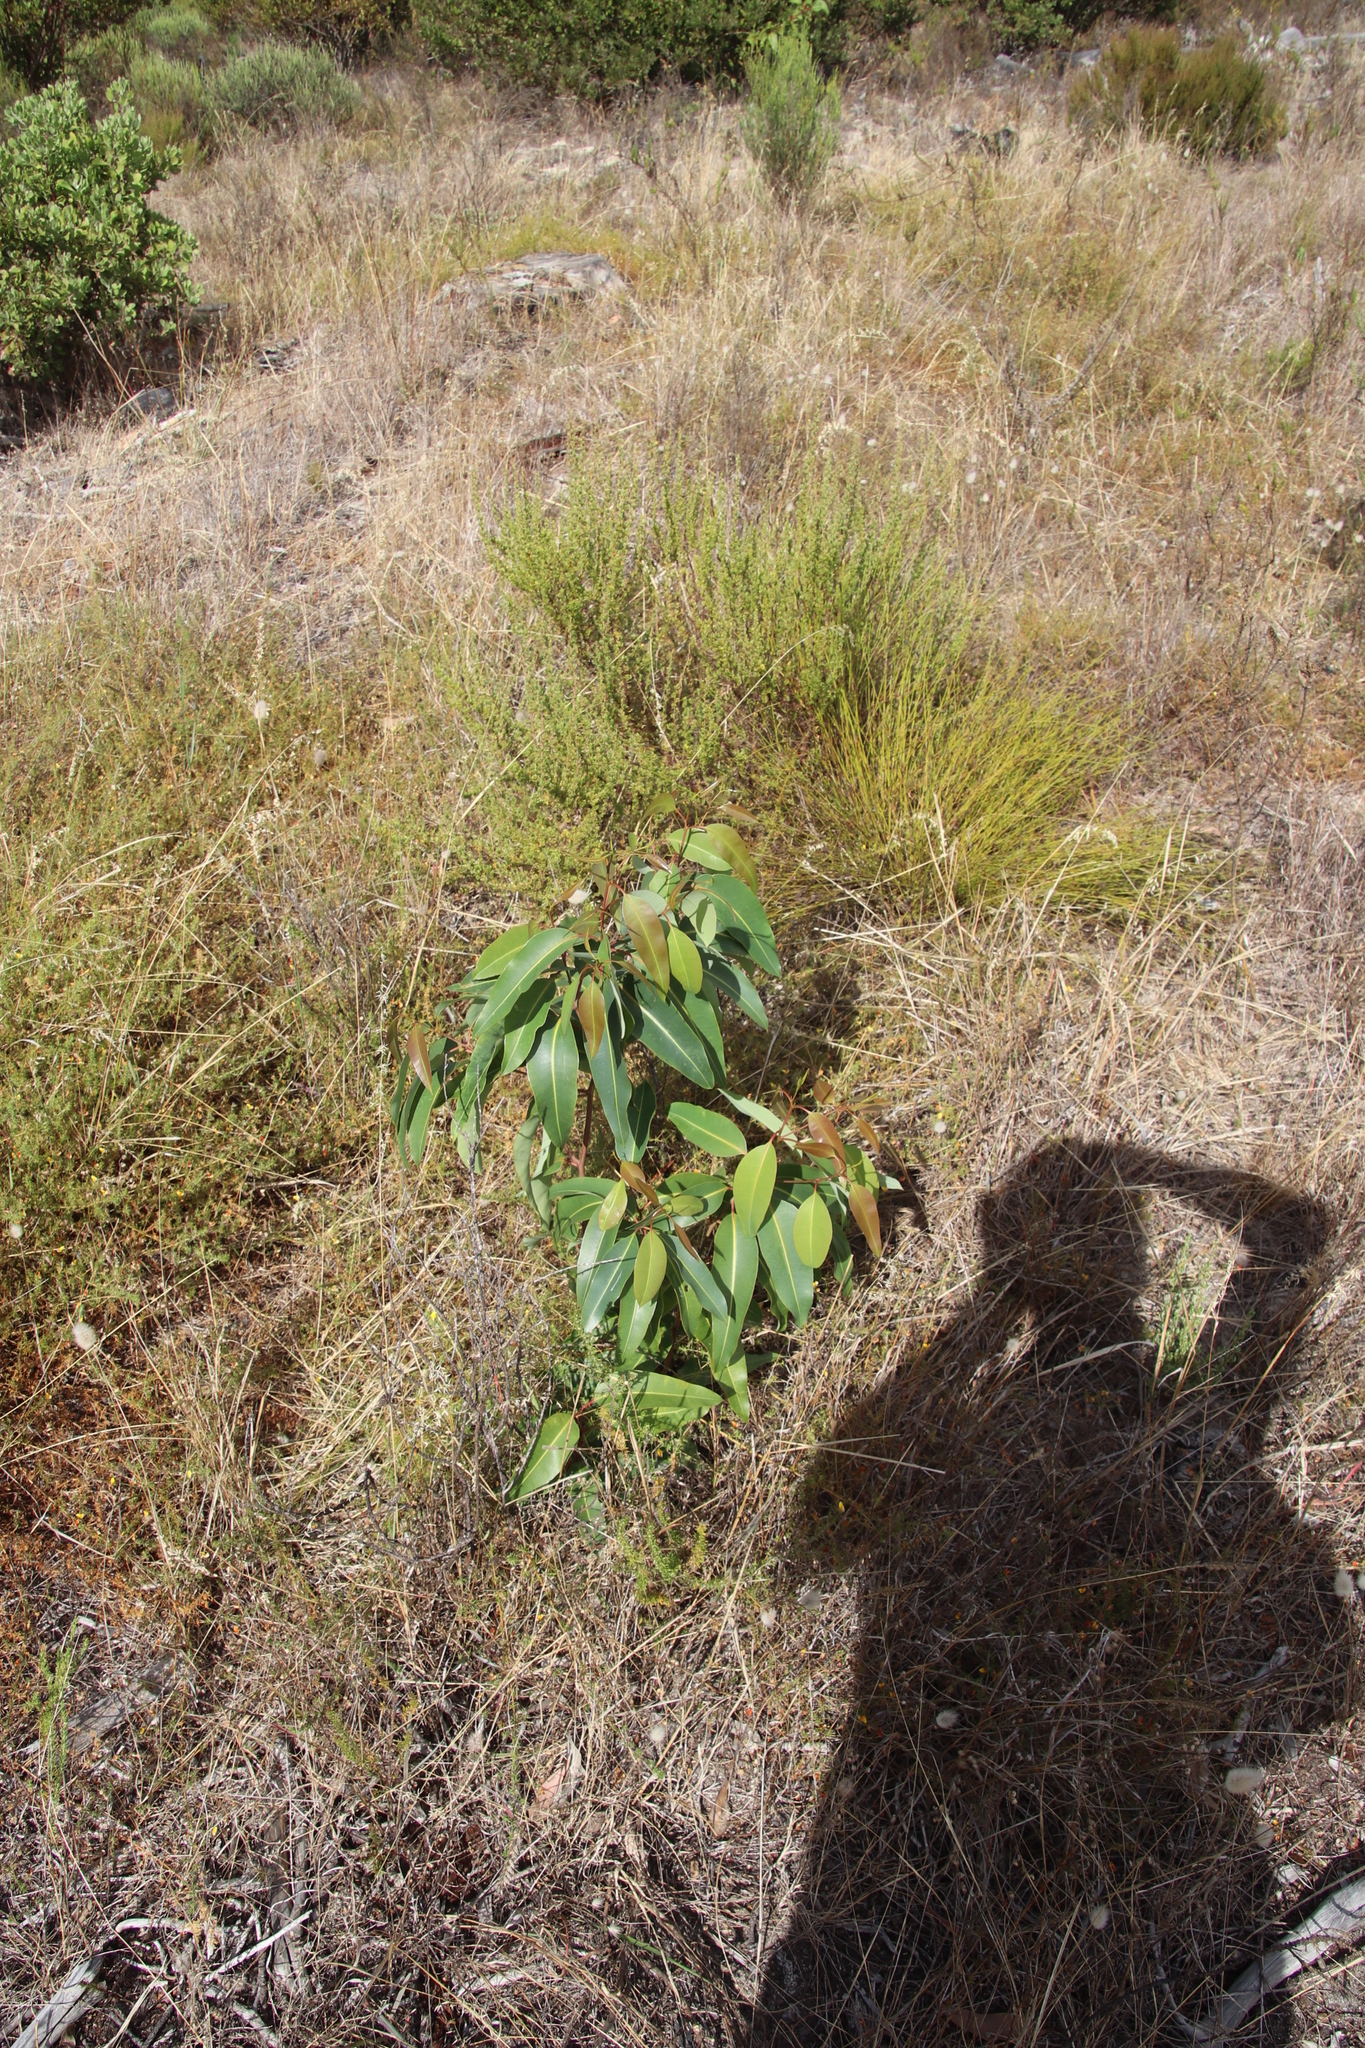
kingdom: Plantae
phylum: Tracheophyta
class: Magnoliopsida
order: Myrtales
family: Myrtaceae
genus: Corymbia
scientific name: Corymbia ficifolia
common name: Redflower gum
